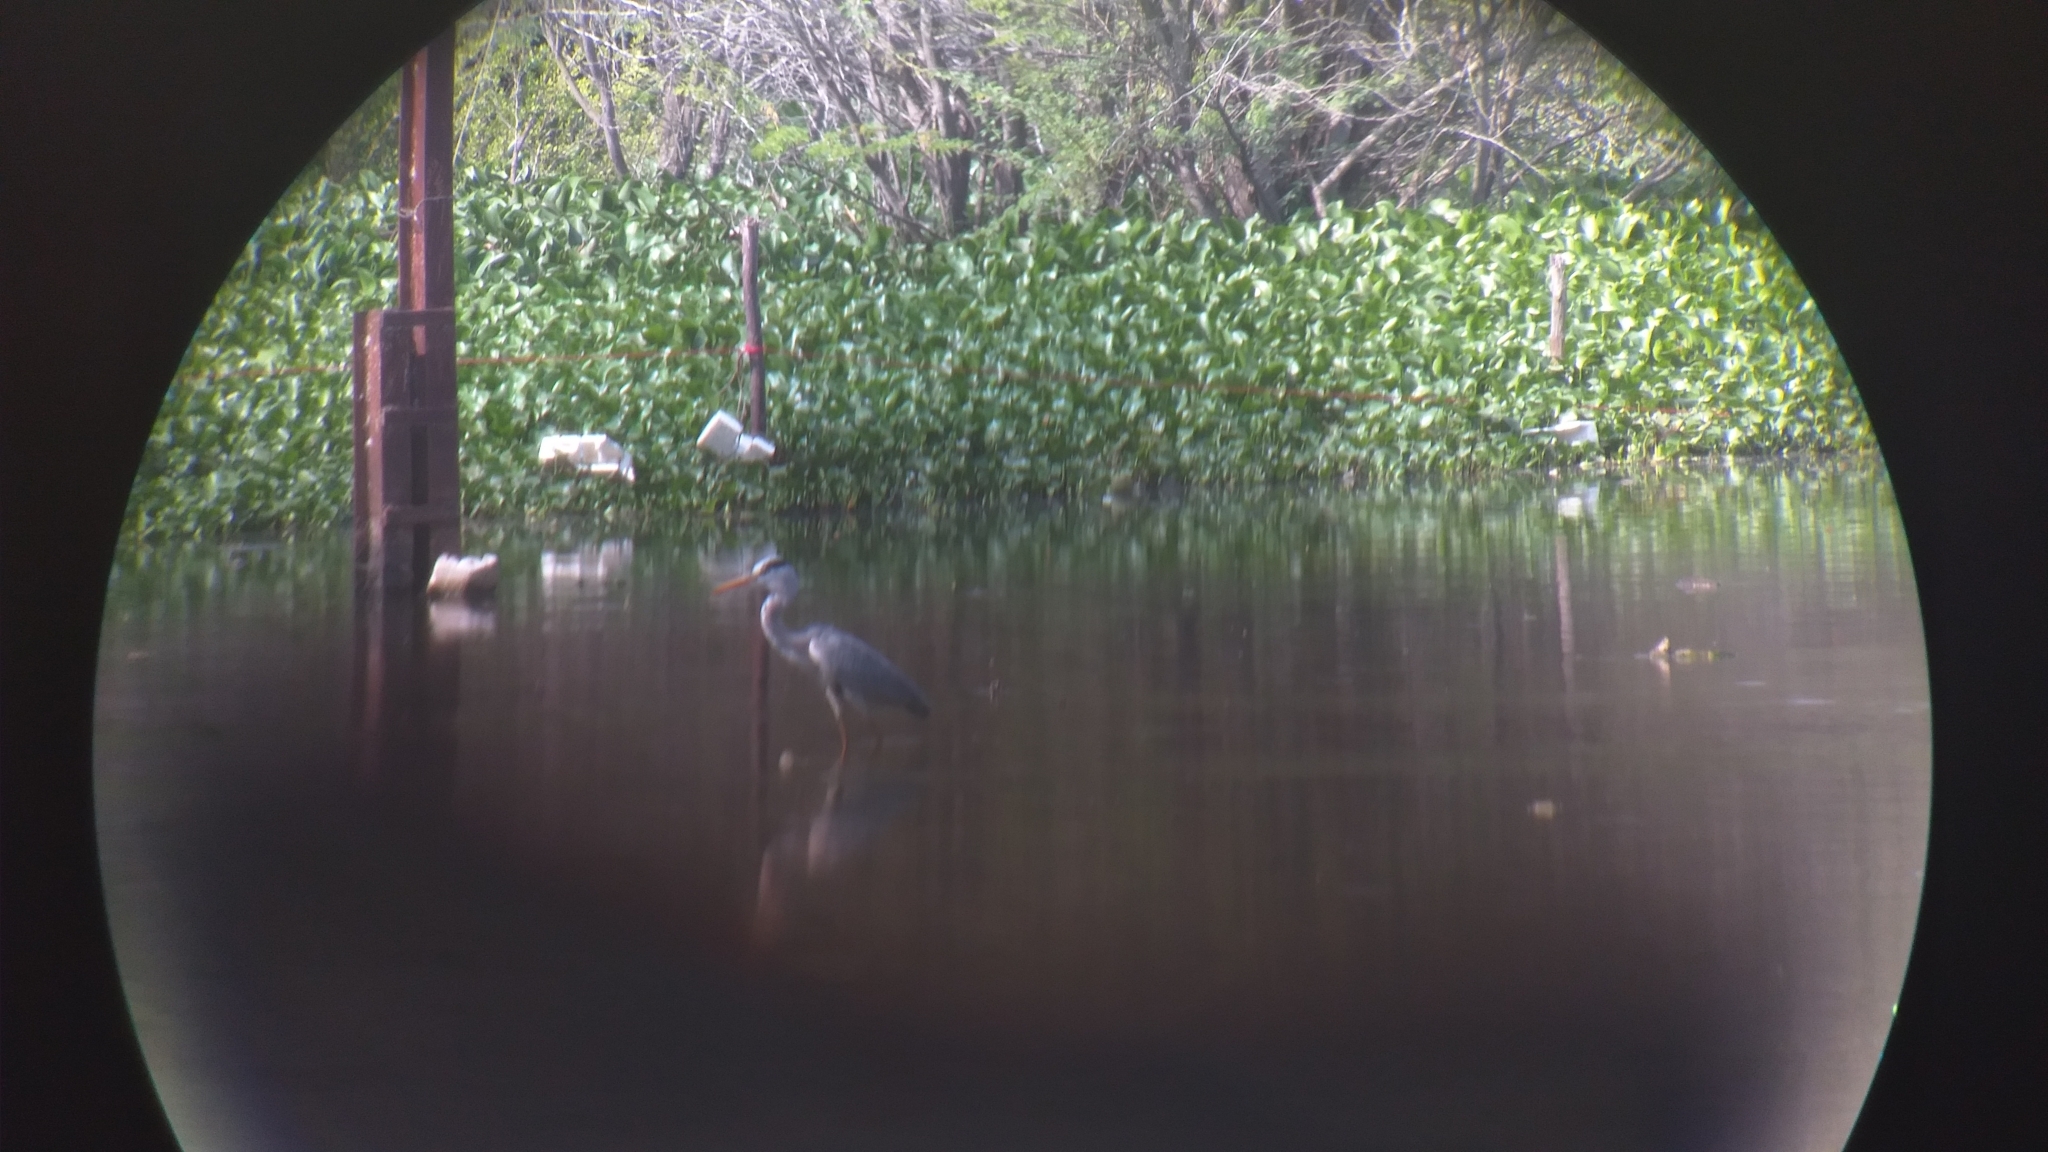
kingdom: Animalia
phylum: Chordata
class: Aves
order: Pelecaniformes
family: Ardeidae
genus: Ardea
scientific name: Ardea cinerea
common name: Grey heron
